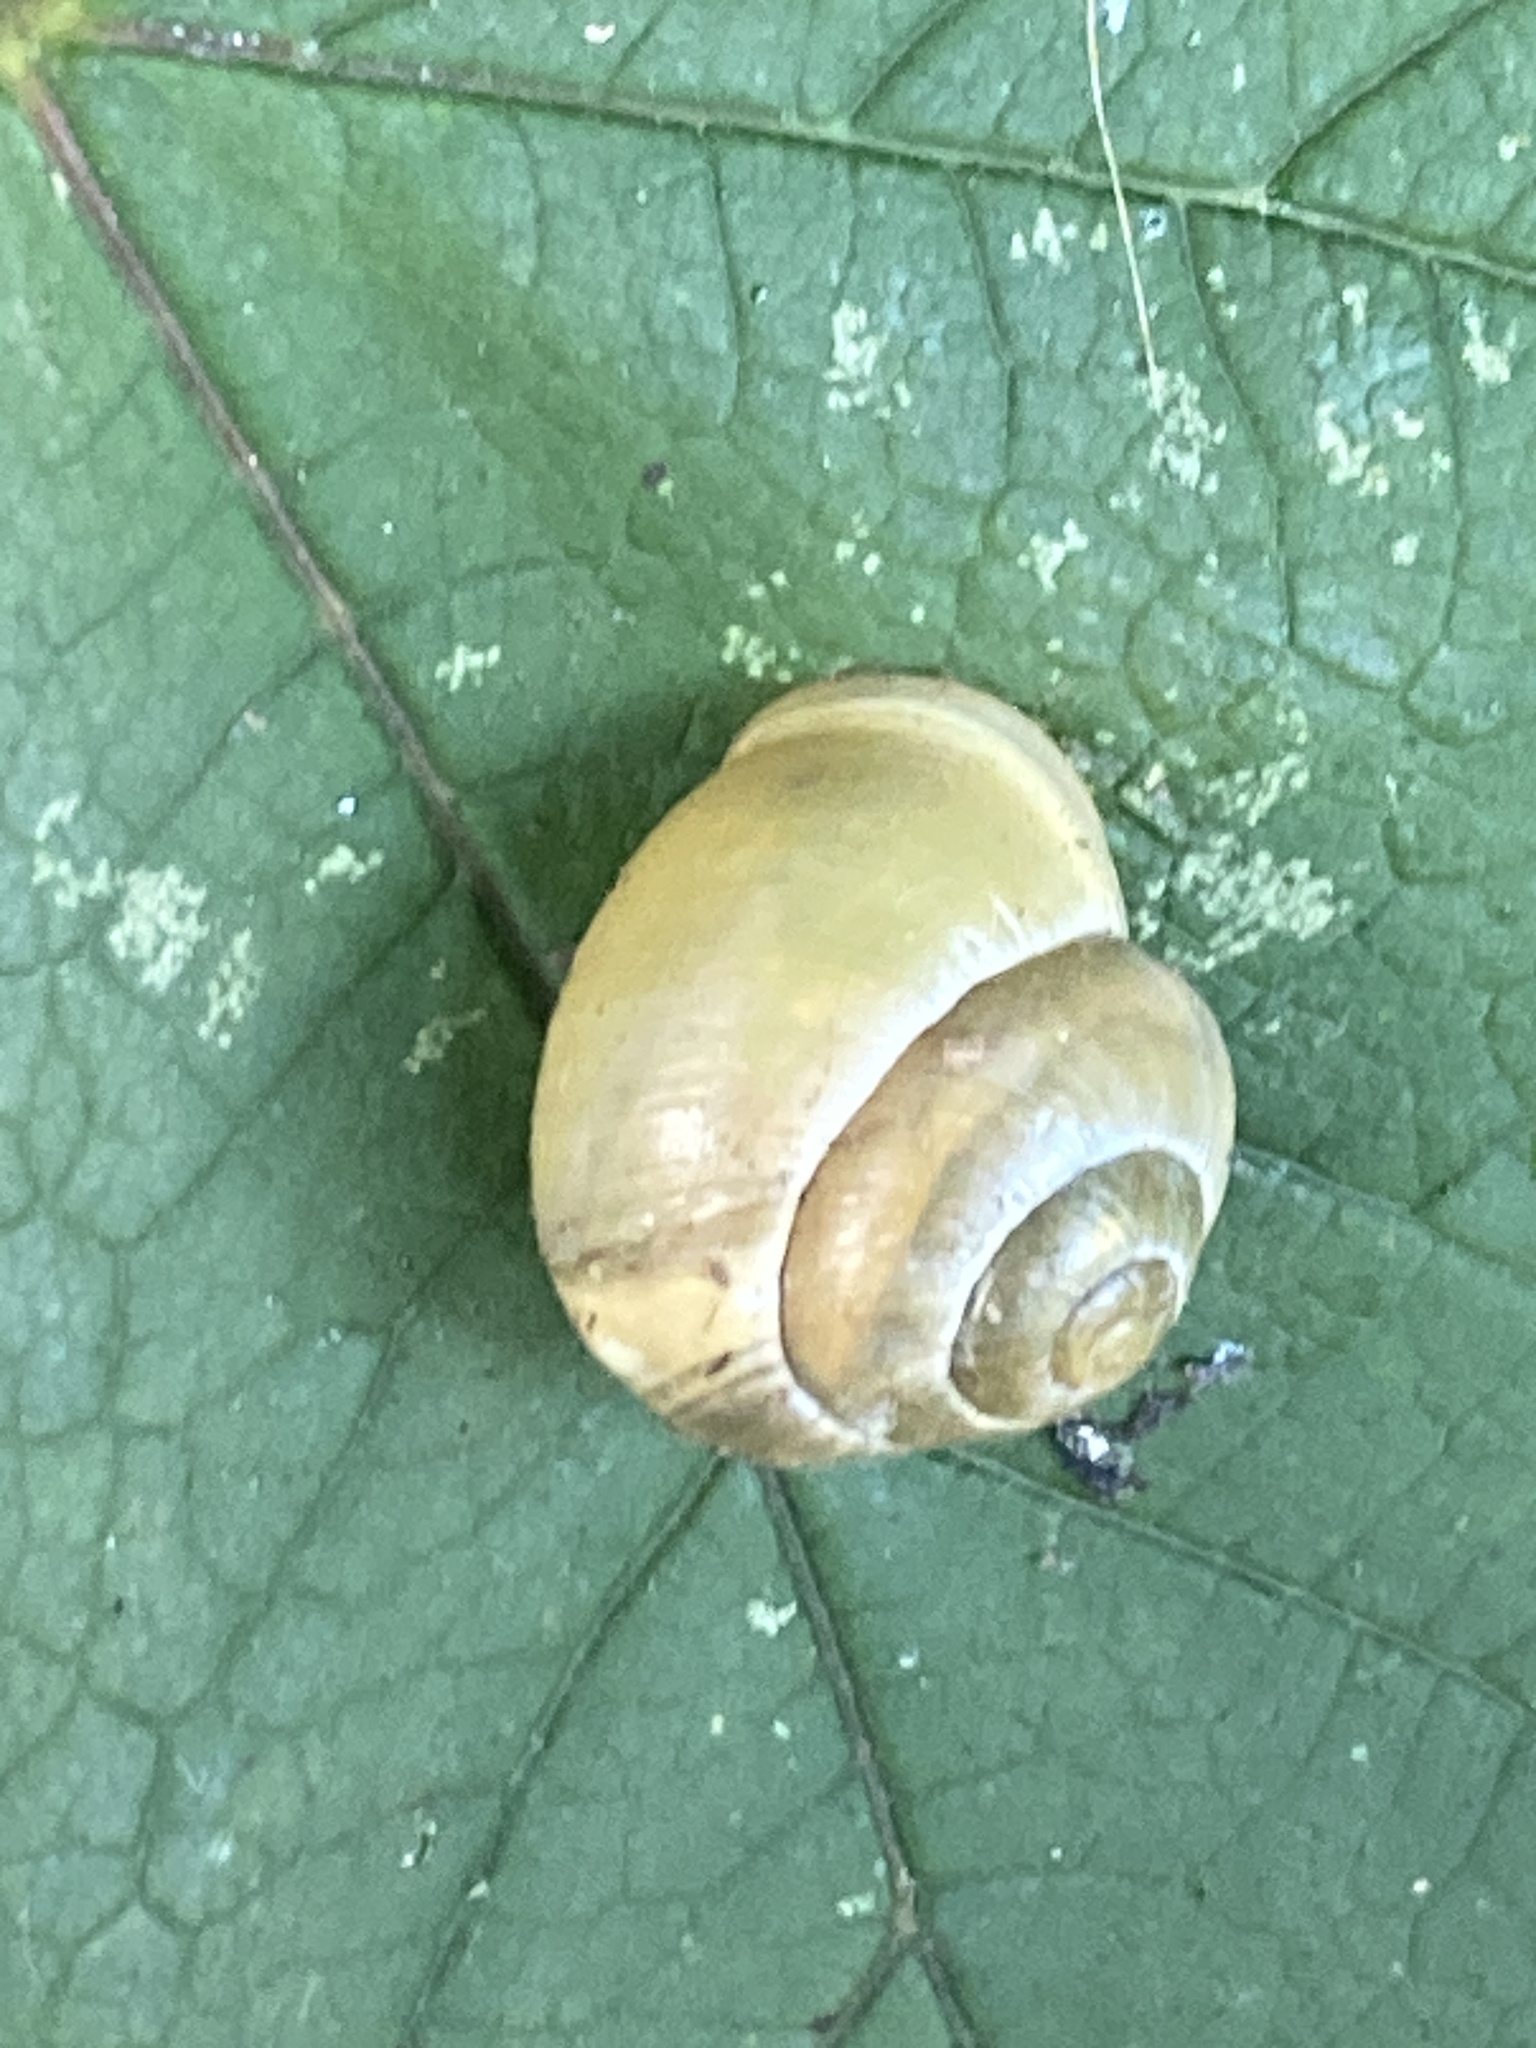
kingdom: Animalia
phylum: Mollusca
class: Gastropoda
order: Stylommatophora
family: Helicidae
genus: Cepaea
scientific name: Cepaea hortensis
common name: White-lip gardensnail
